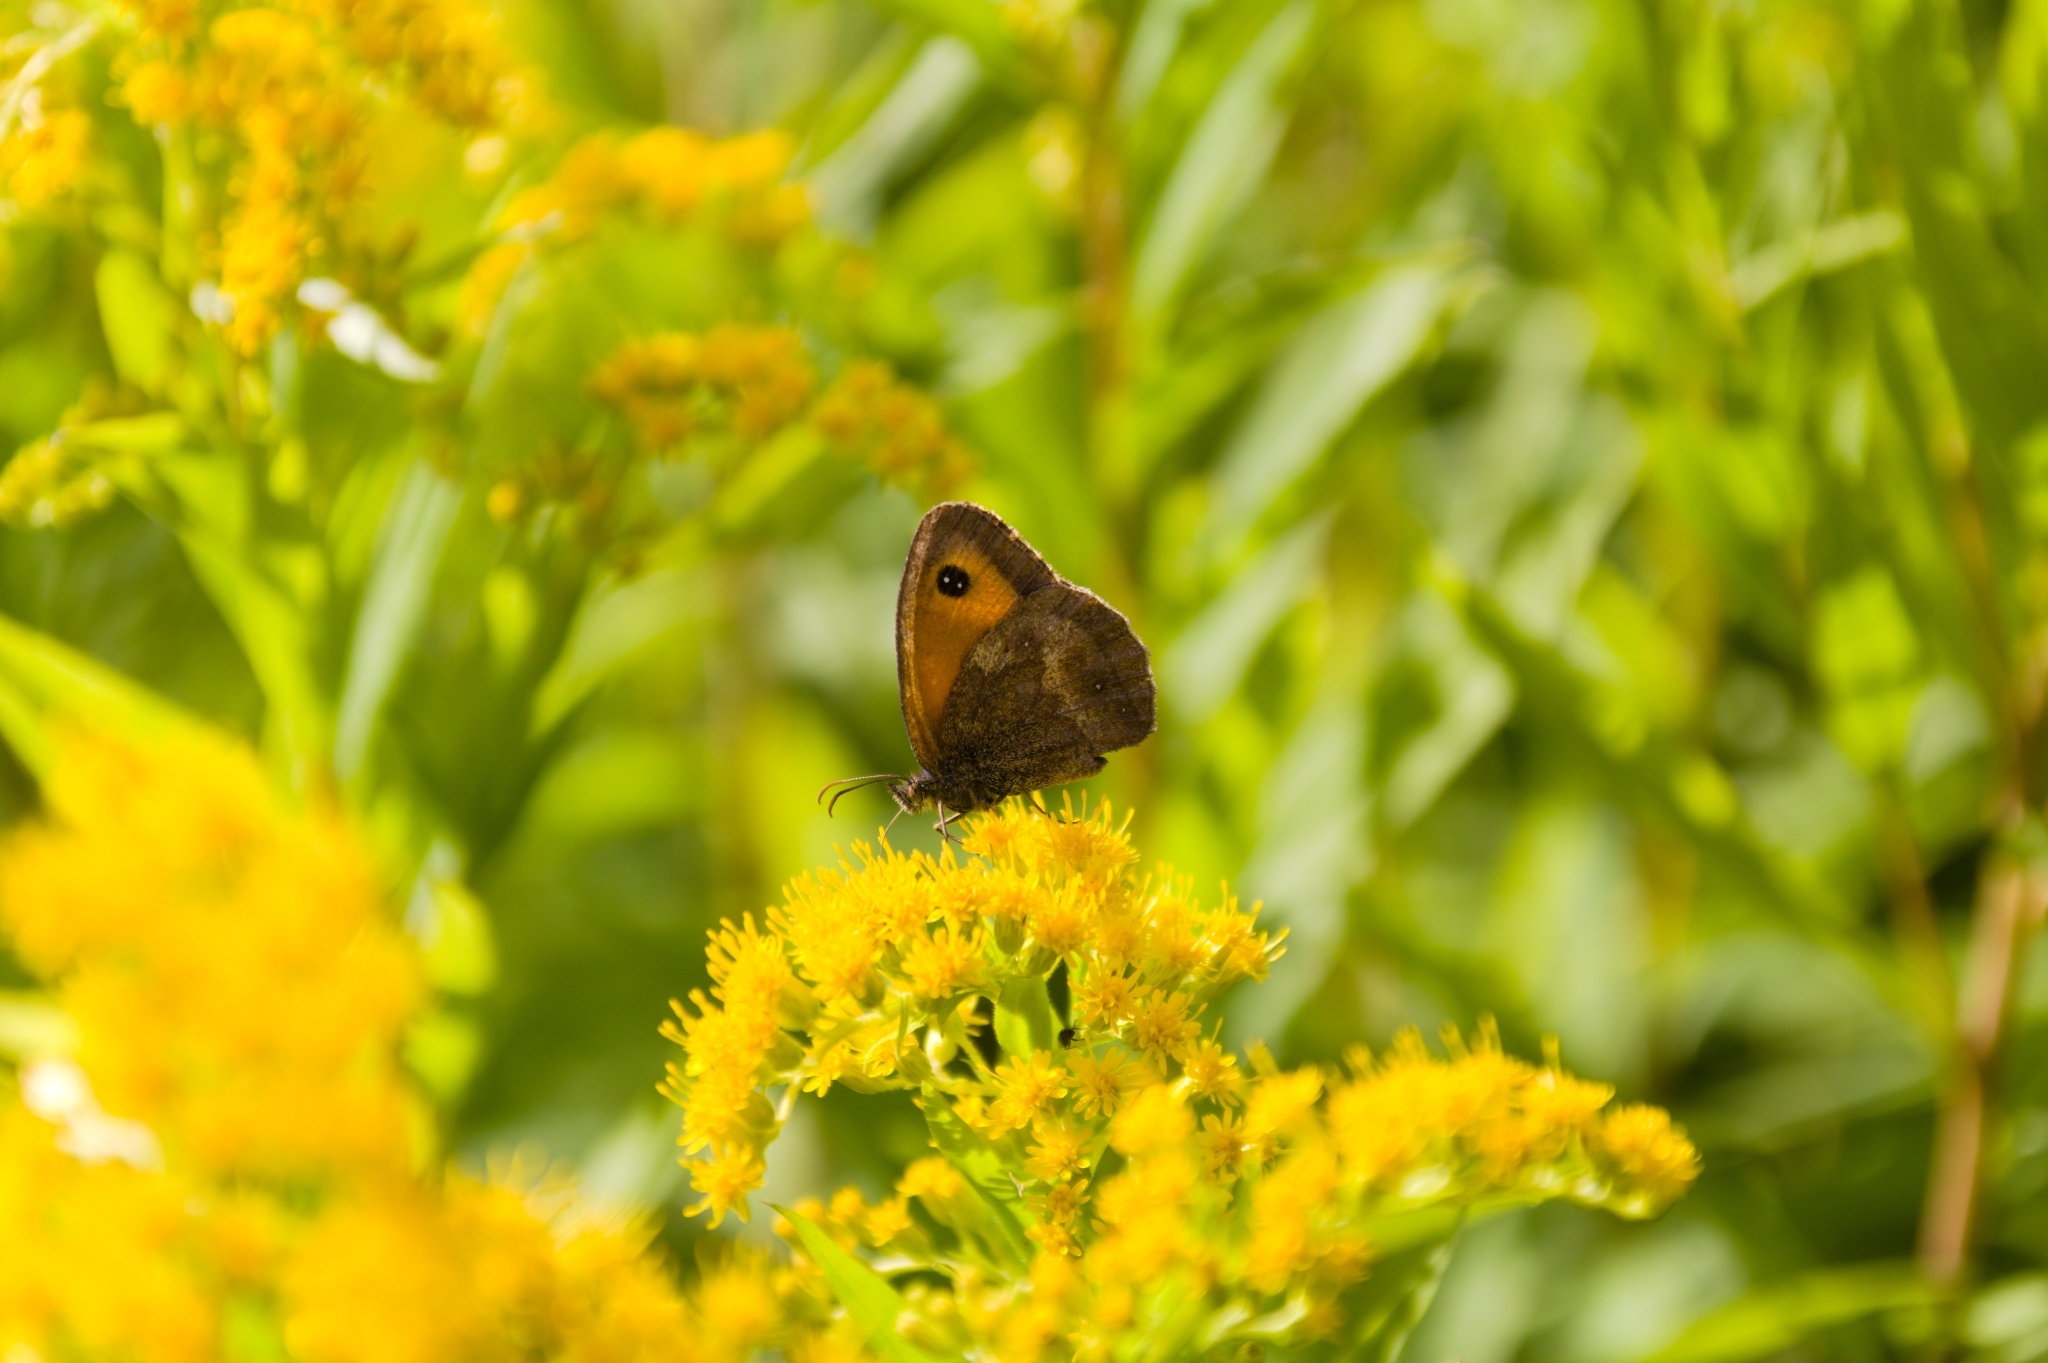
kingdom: Animalia
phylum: Arthropoda
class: Insecta
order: Lepidoptera
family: Nymphalidae
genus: Pyronia
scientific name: Pyronia tithonus
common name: Gatekeeper
